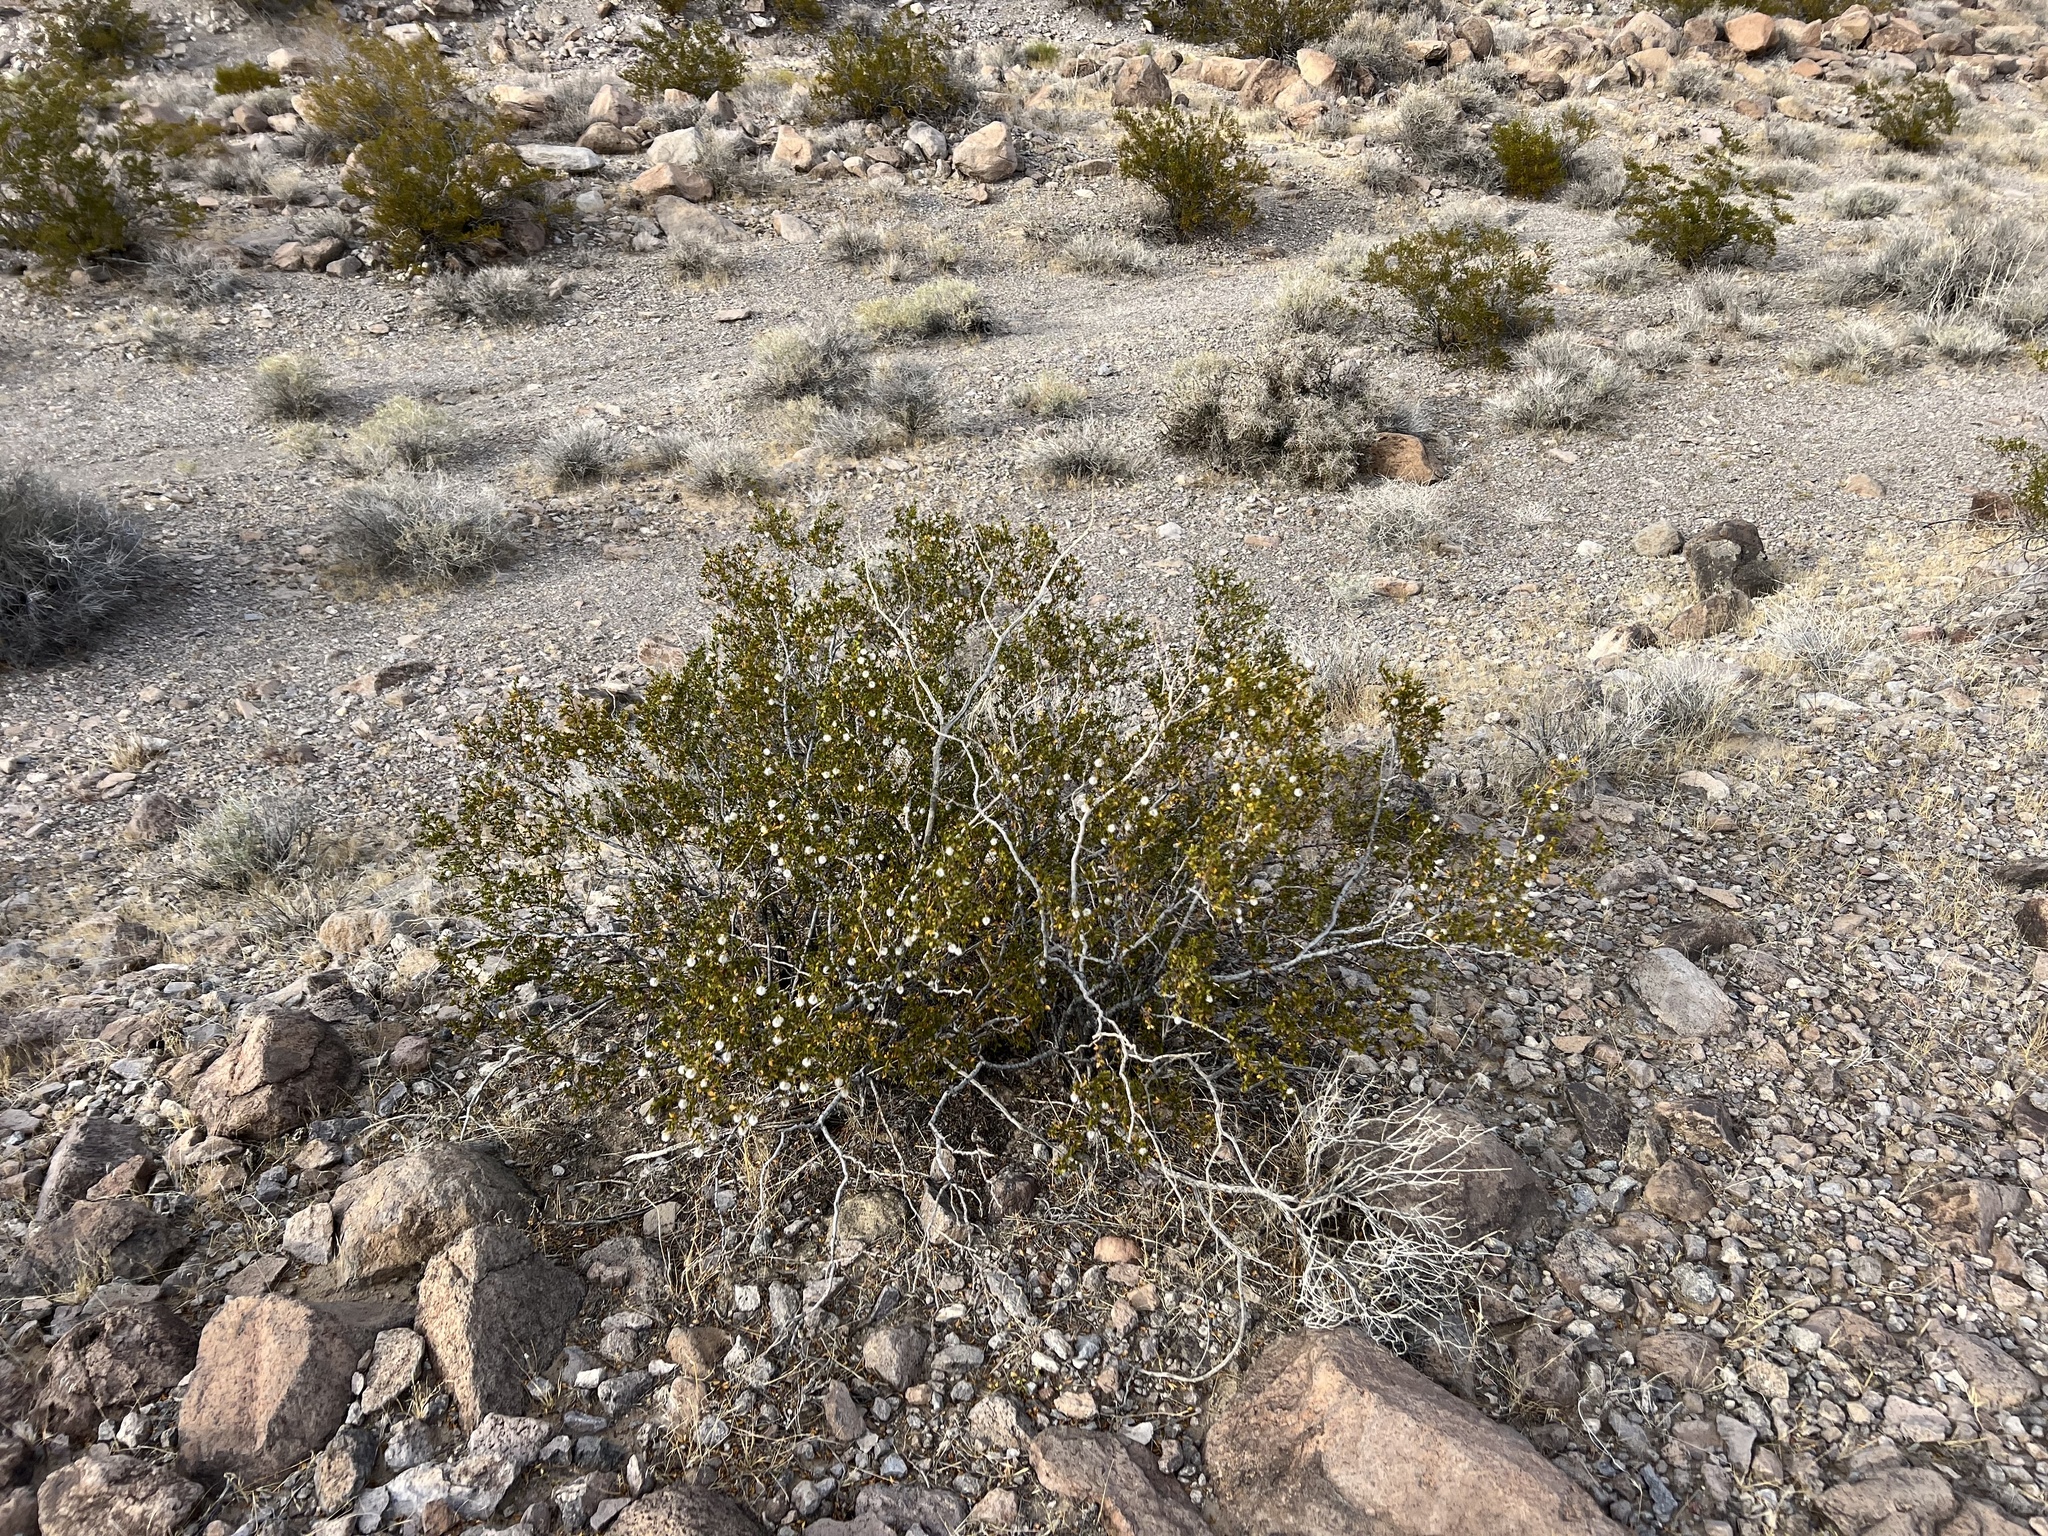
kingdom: Plantae
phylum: Tracheophyta
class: Magnoliopsida
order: Zygophyllales
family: Zygophyllaceae
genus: Larrea
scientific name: Larrea tridentata
